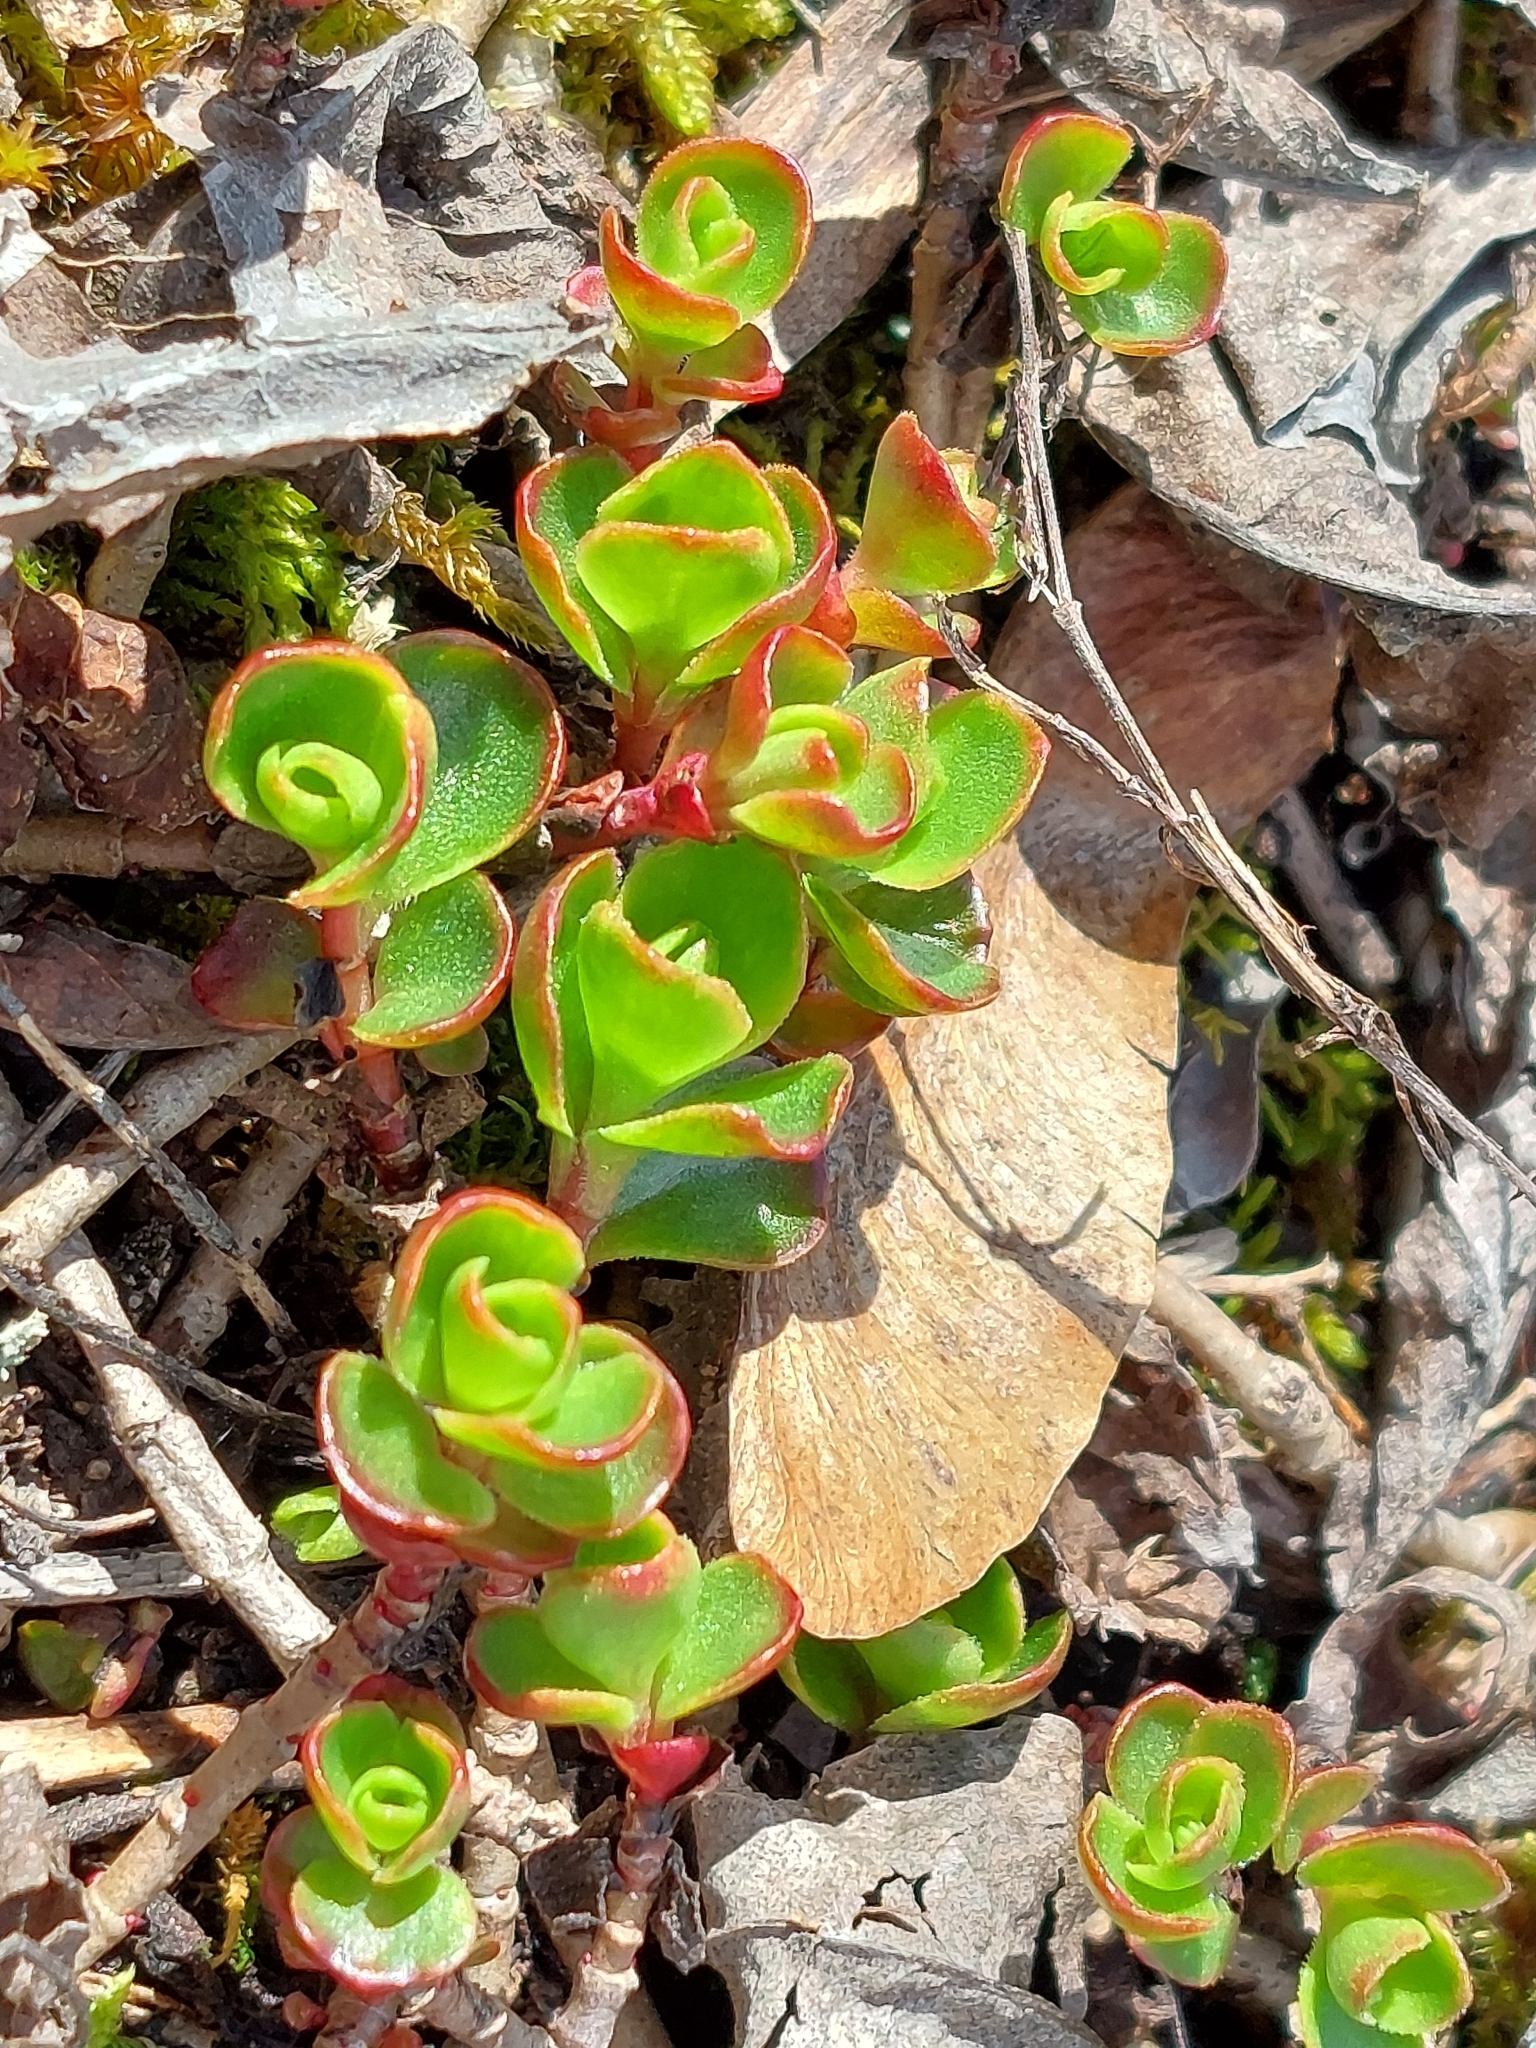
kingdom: Plantae
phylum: Tracheophyta
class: Magnoliopsida
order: Saxifragales
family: Crassulaceae
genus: Phedimus
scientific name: Phedimus spurius
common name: Caucasian stonecrop
